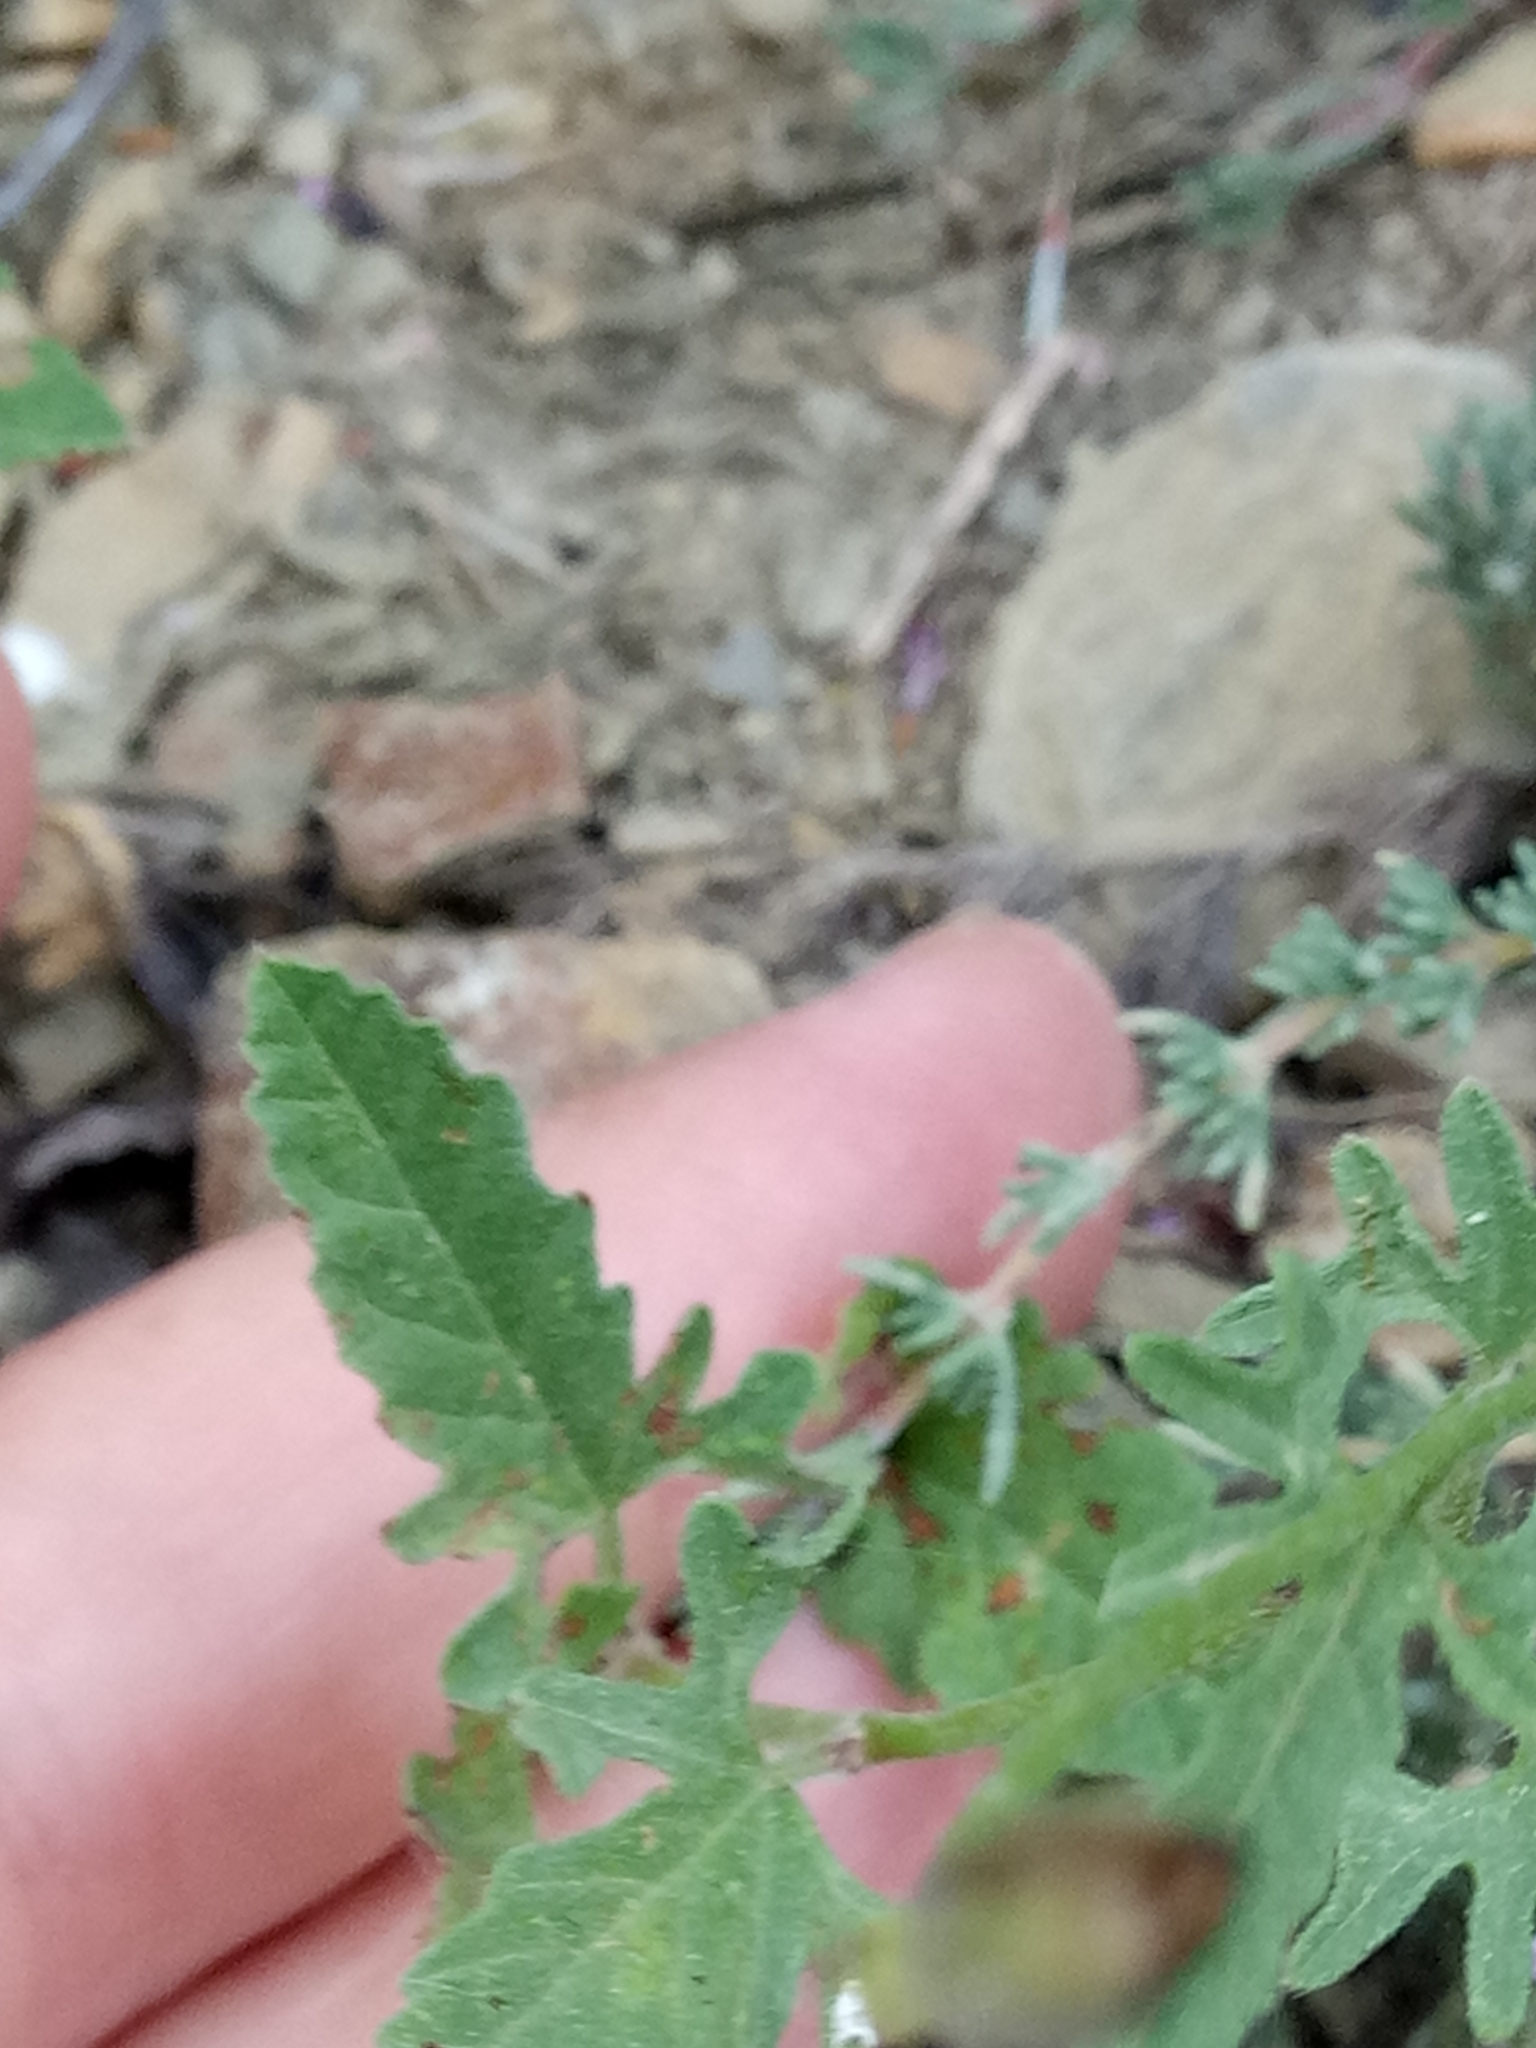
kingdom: Plantae
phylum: Tracheophyta
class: Magnoliopsida
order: Solanales
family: Convolvulaceae
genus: Convolvulus
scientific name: Convolvulus althaeoides
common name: Mallow bindweed
